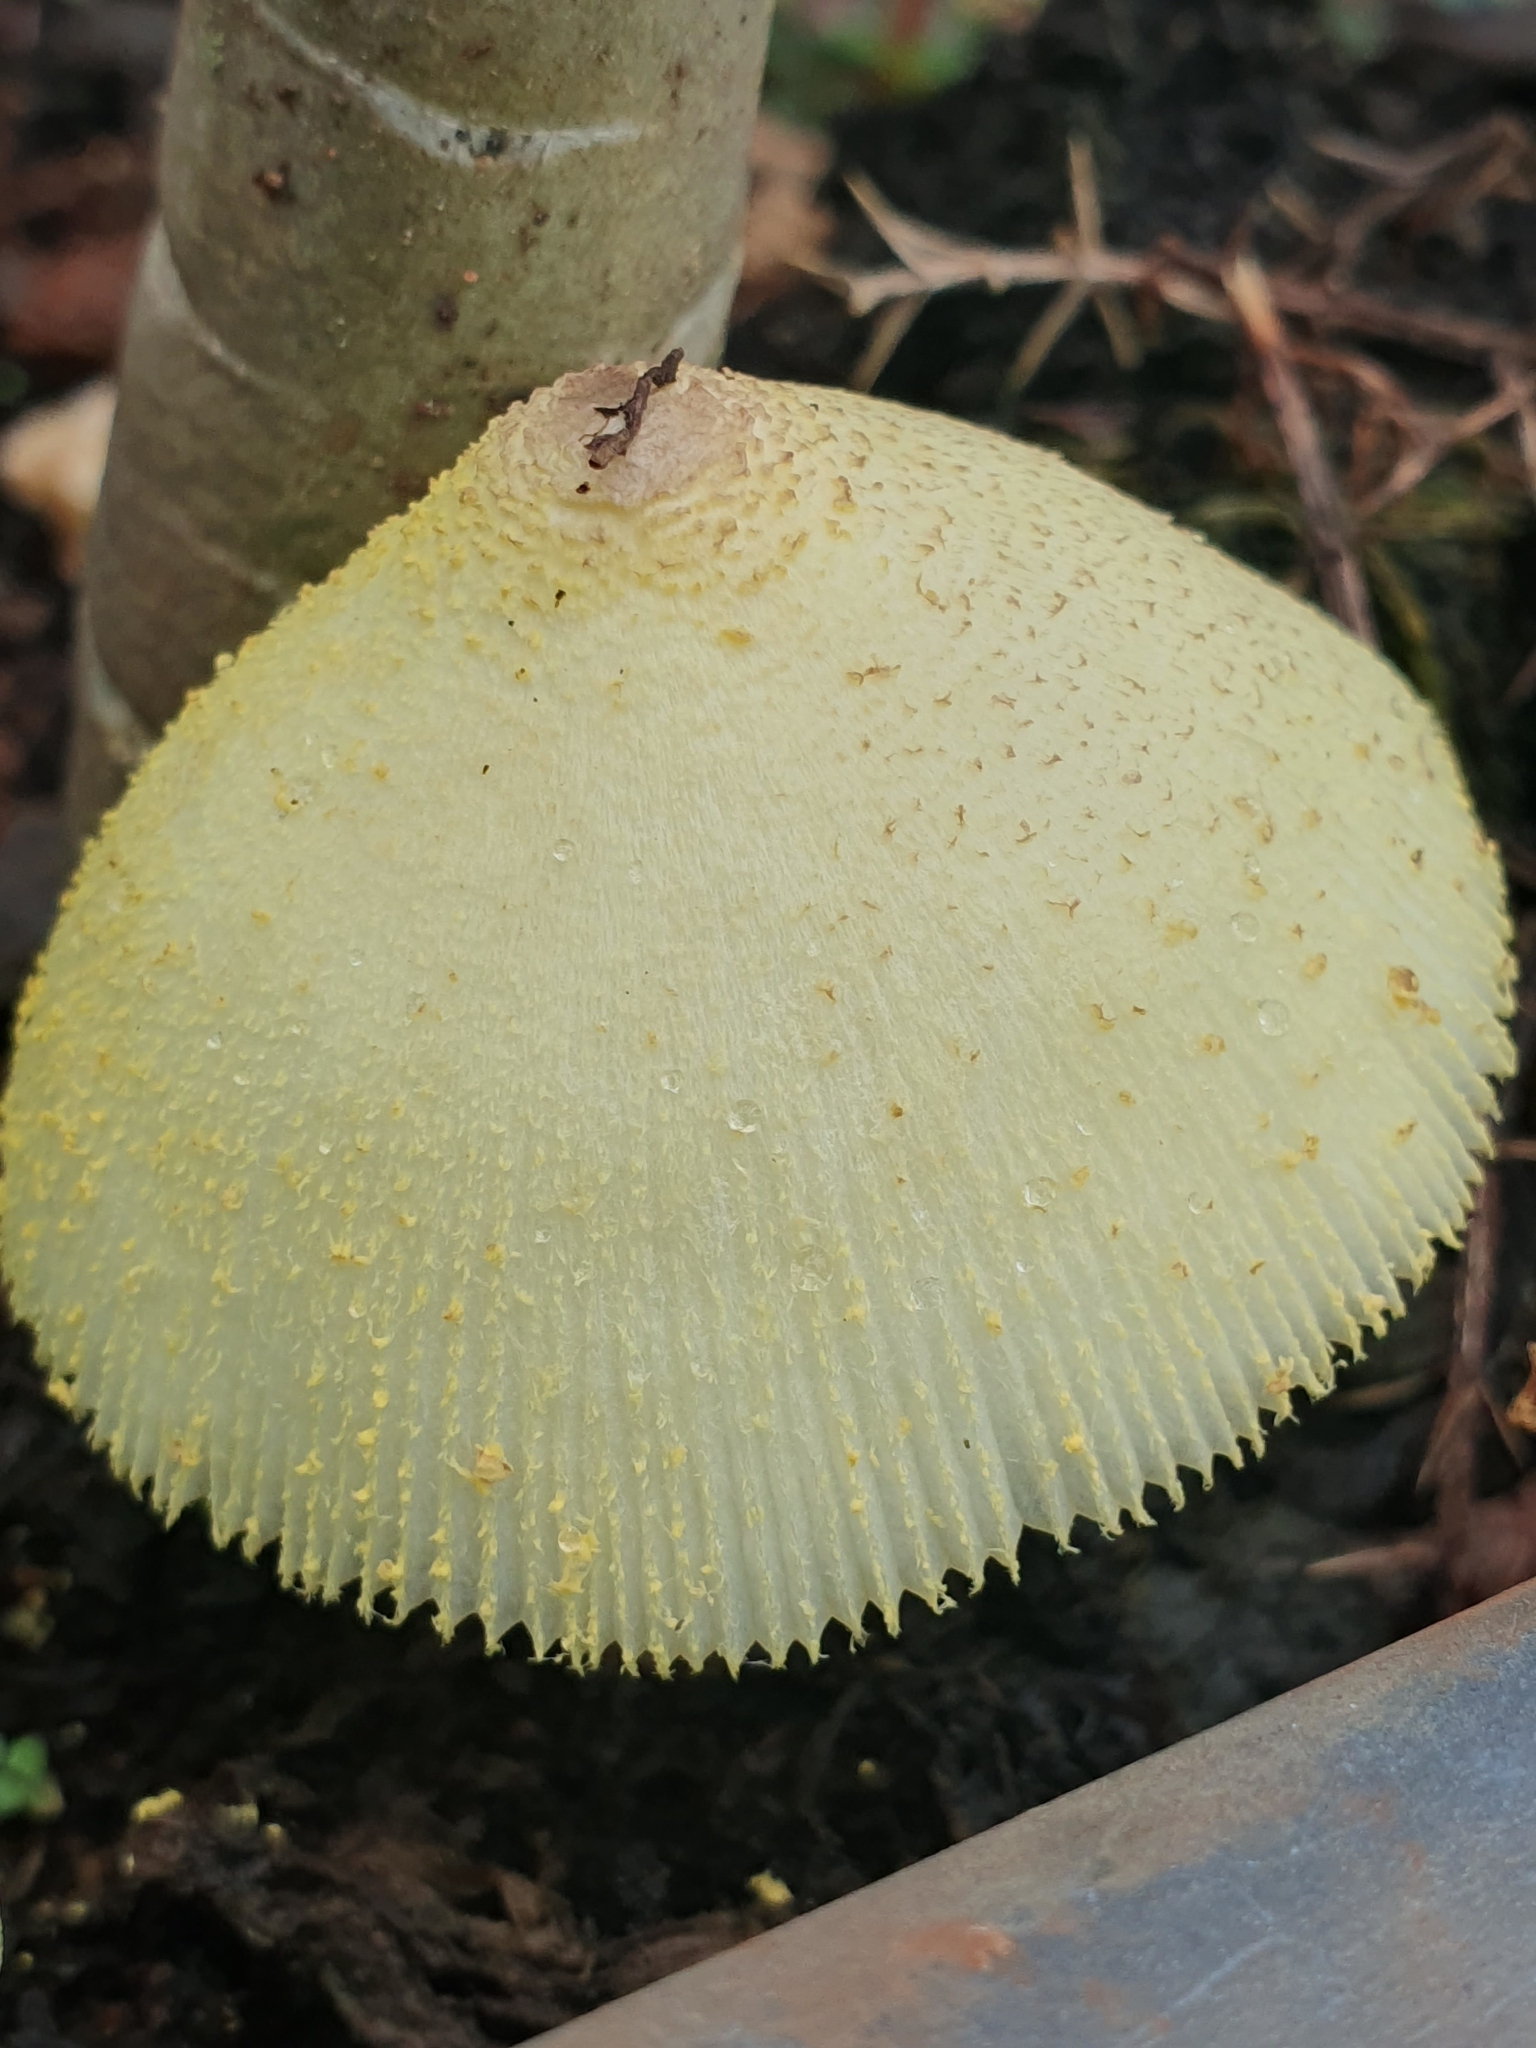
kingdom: Fungi
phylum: Basidiomycota
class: Agaricomycetes
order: Agaricales
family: Agaricaceae
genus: Leucocoprinus
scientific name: Leucocoprinus birnbaumii
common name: Plantpot dapperling
